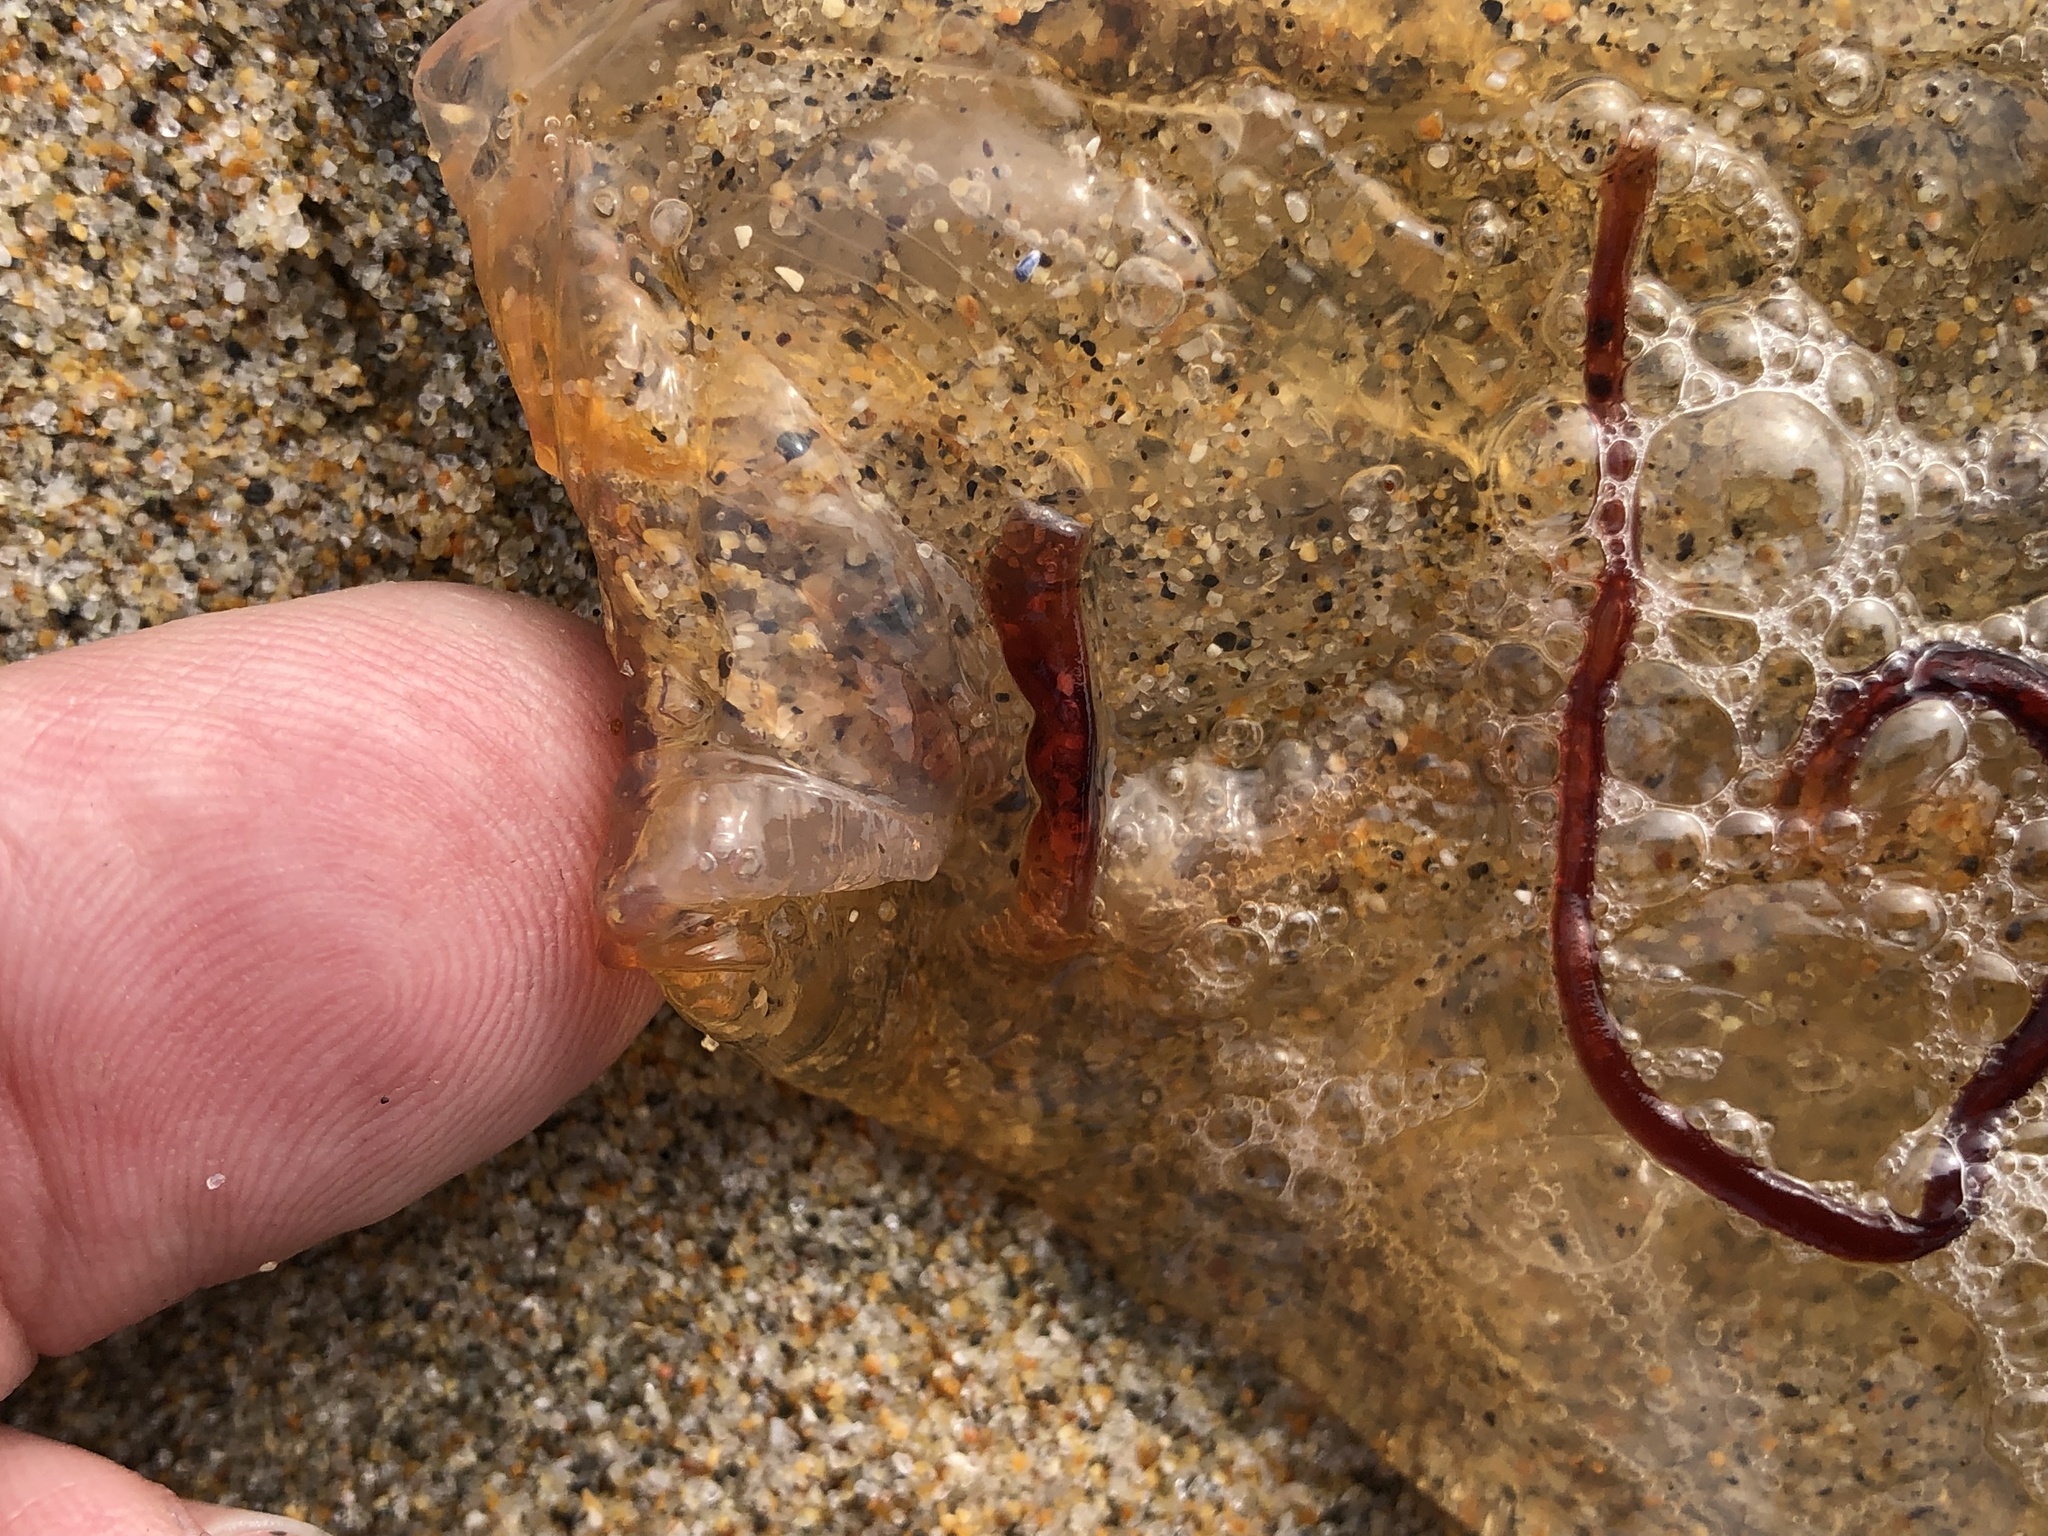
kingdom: Animalia
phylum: Cnidaria
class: Scyphozoa
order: Semaeostomeae
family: Pelagiidae
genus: Chrysaora
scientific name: Chrysaora fuscescens
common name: Sea nettle
